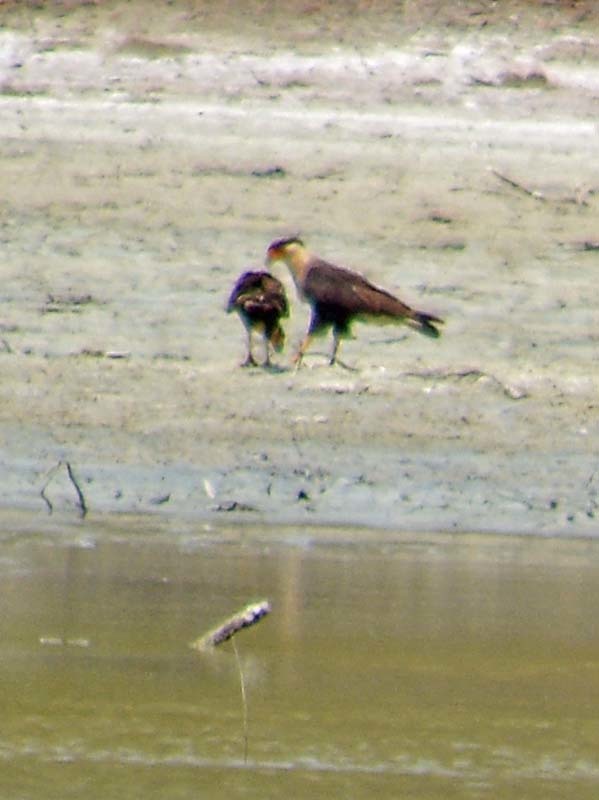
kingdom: Animalia
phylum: Chordata
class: Aves
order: Falconiformes
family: Falconidae
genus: Caracara
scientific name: Caracara plancus
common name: Southern caracara
